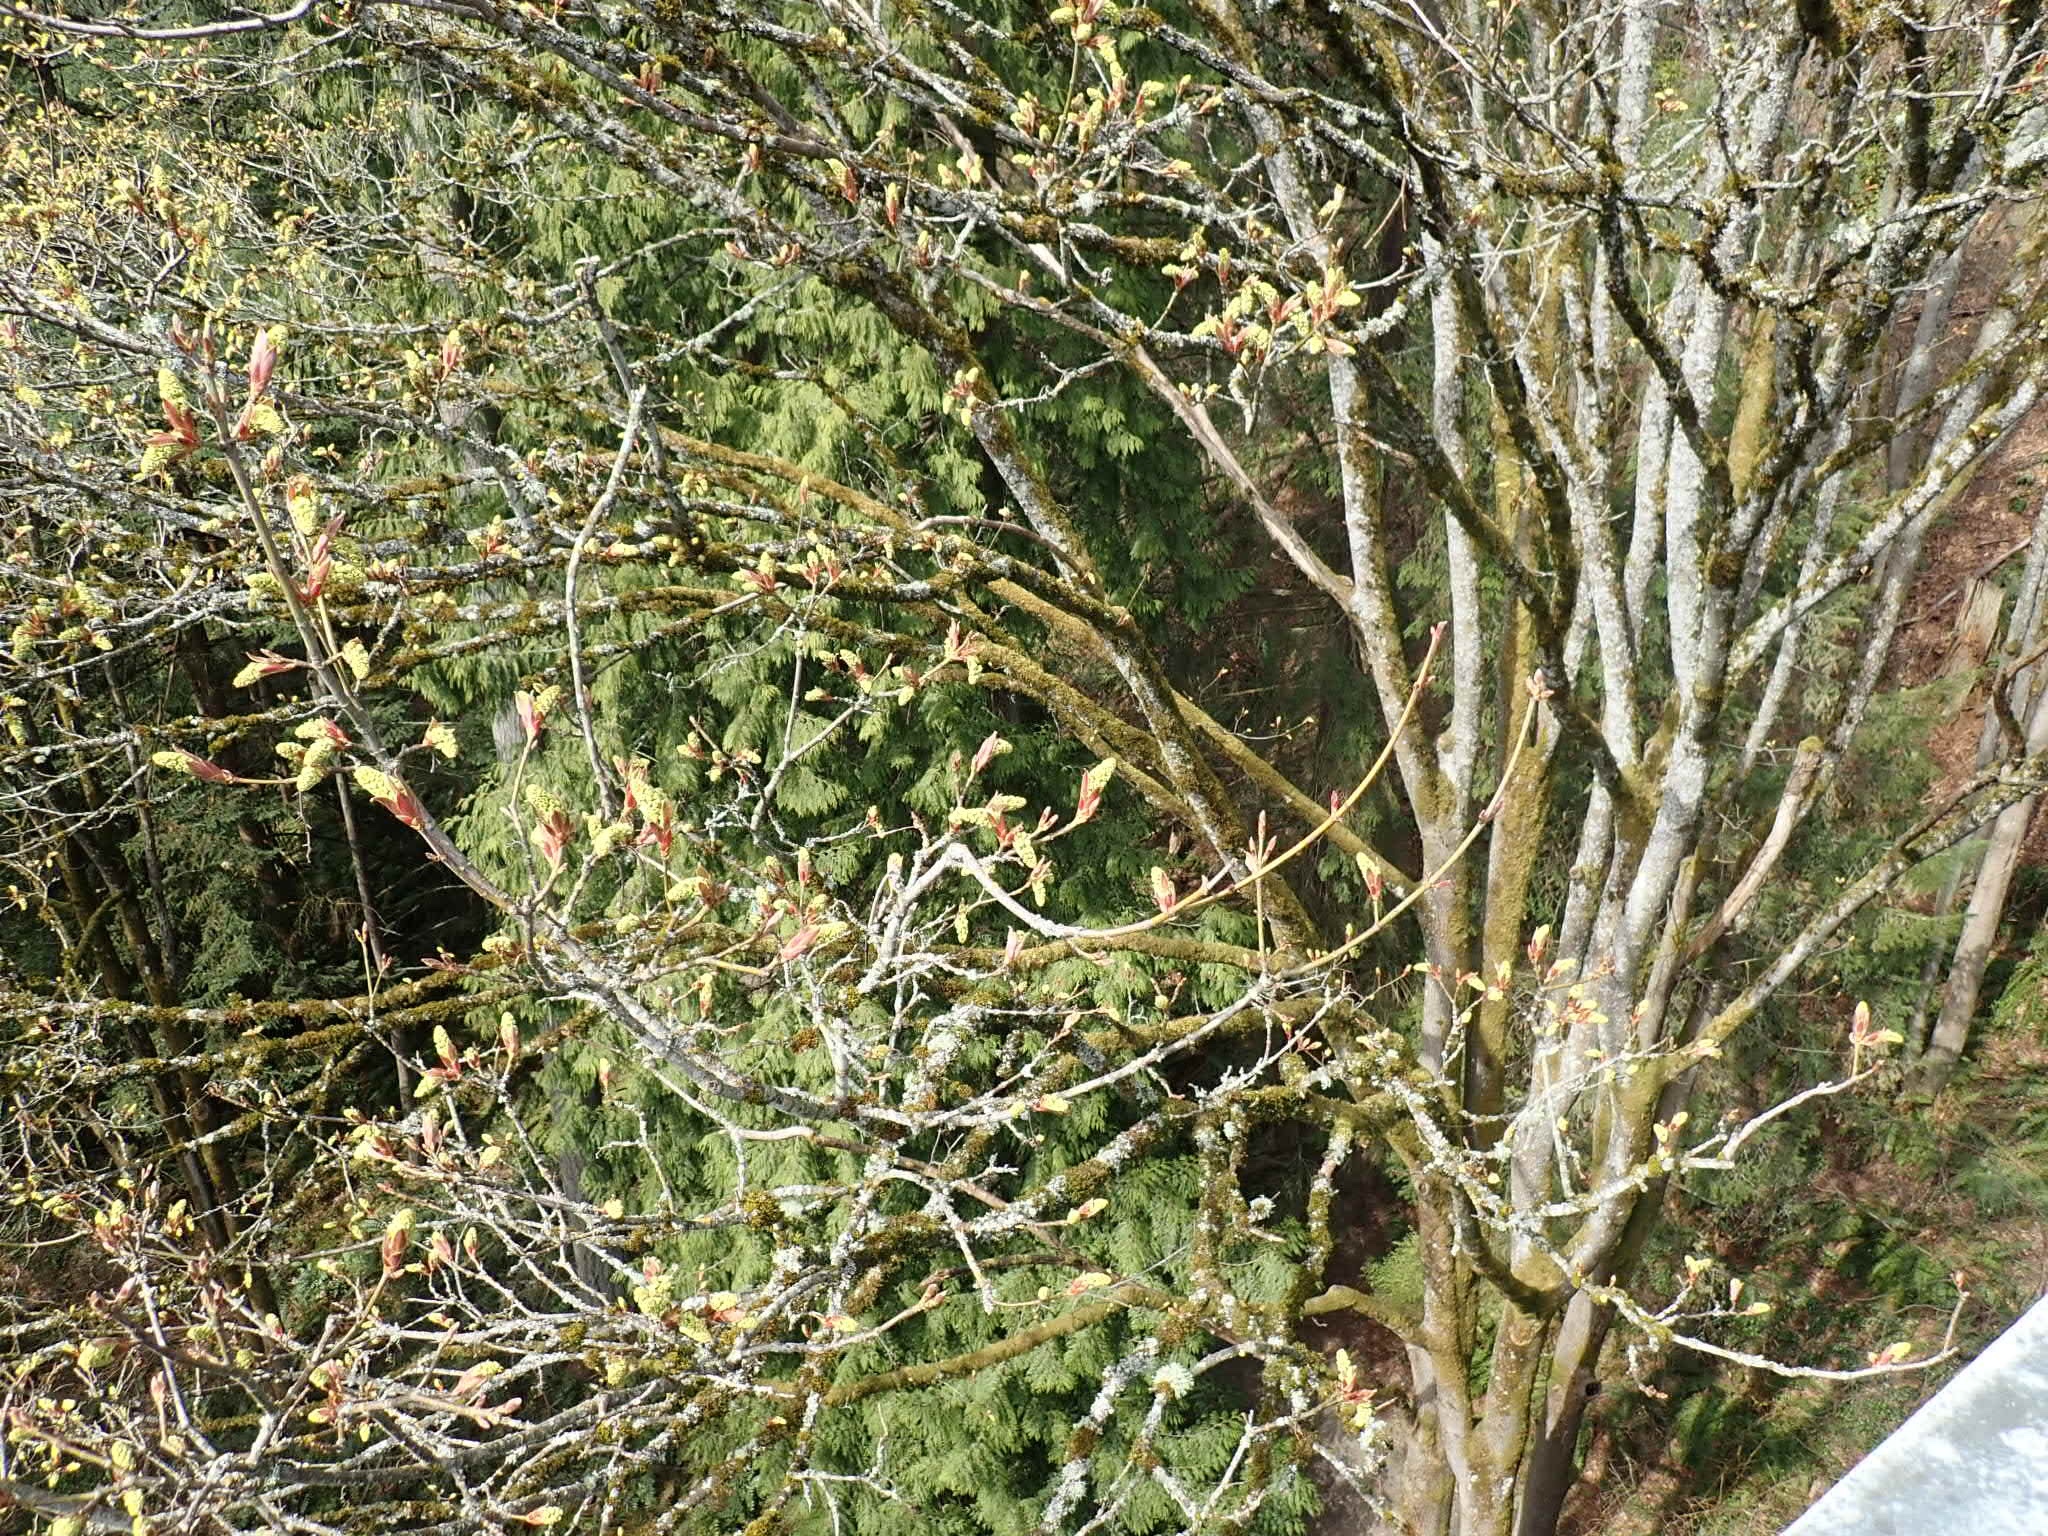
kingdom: Plantae
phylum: Tracheophyta
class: Magnoliopsida
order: Sapindales
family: Sapindaceae
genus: Acer
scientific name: Acer macrophyllum
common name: Oregon maple
